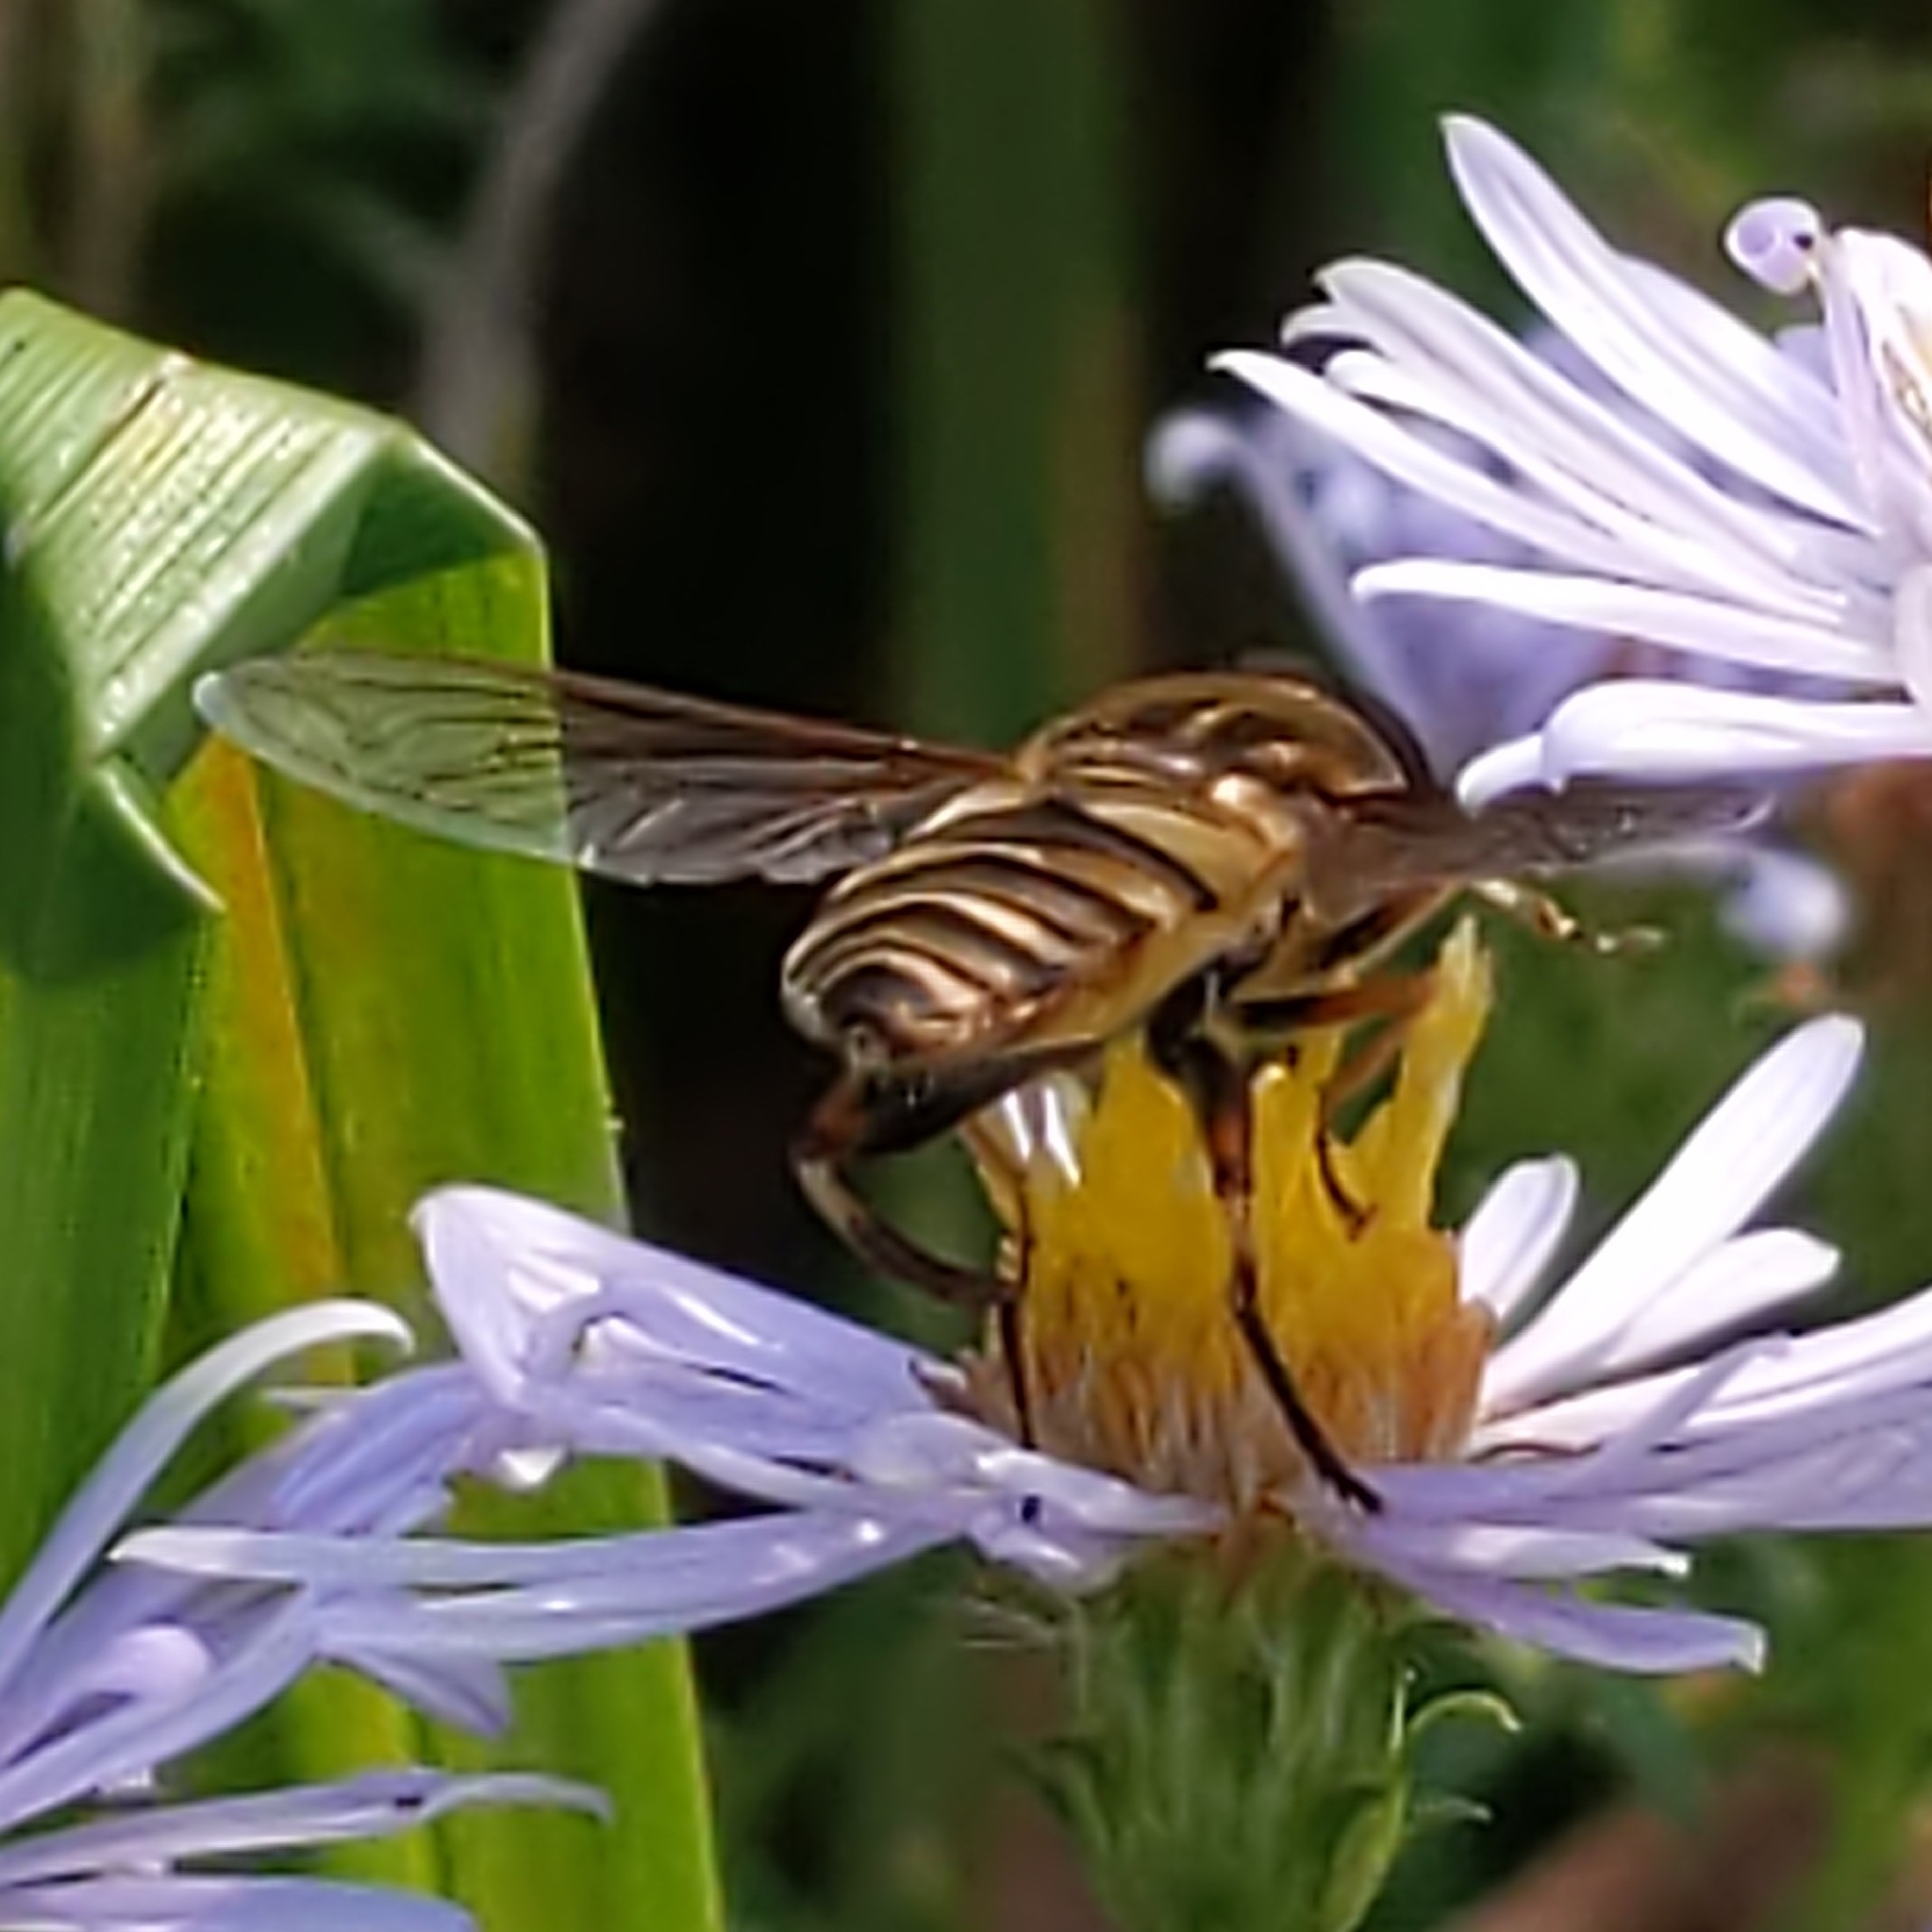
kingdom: Animalia
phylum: Arthropoda
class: Insecta
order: Diptera
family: Syrphidae
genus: Helophilus
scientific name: Helophilus fasciatus
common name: Narrow-headed marsh fly
